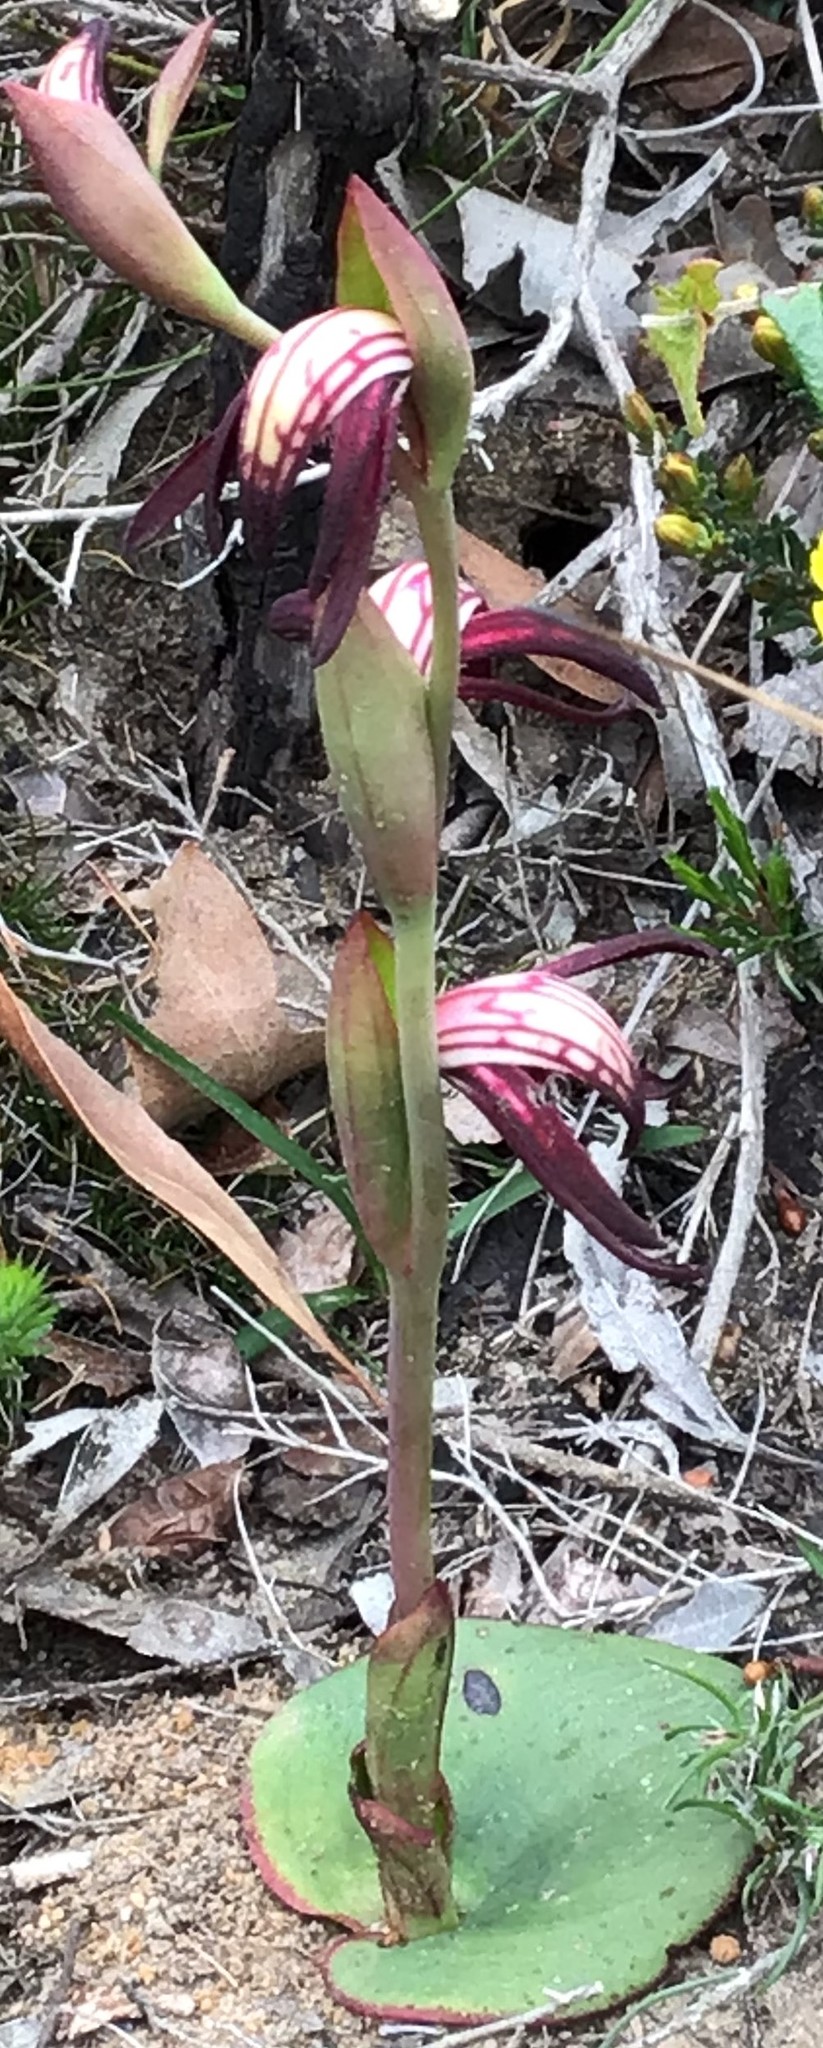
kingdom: Plantae
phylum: Tracheophyta
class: Liliopsida
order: Asparagales
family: Orchidaceae
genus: Pyrorchis
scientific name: Pyrorchis nigricans
